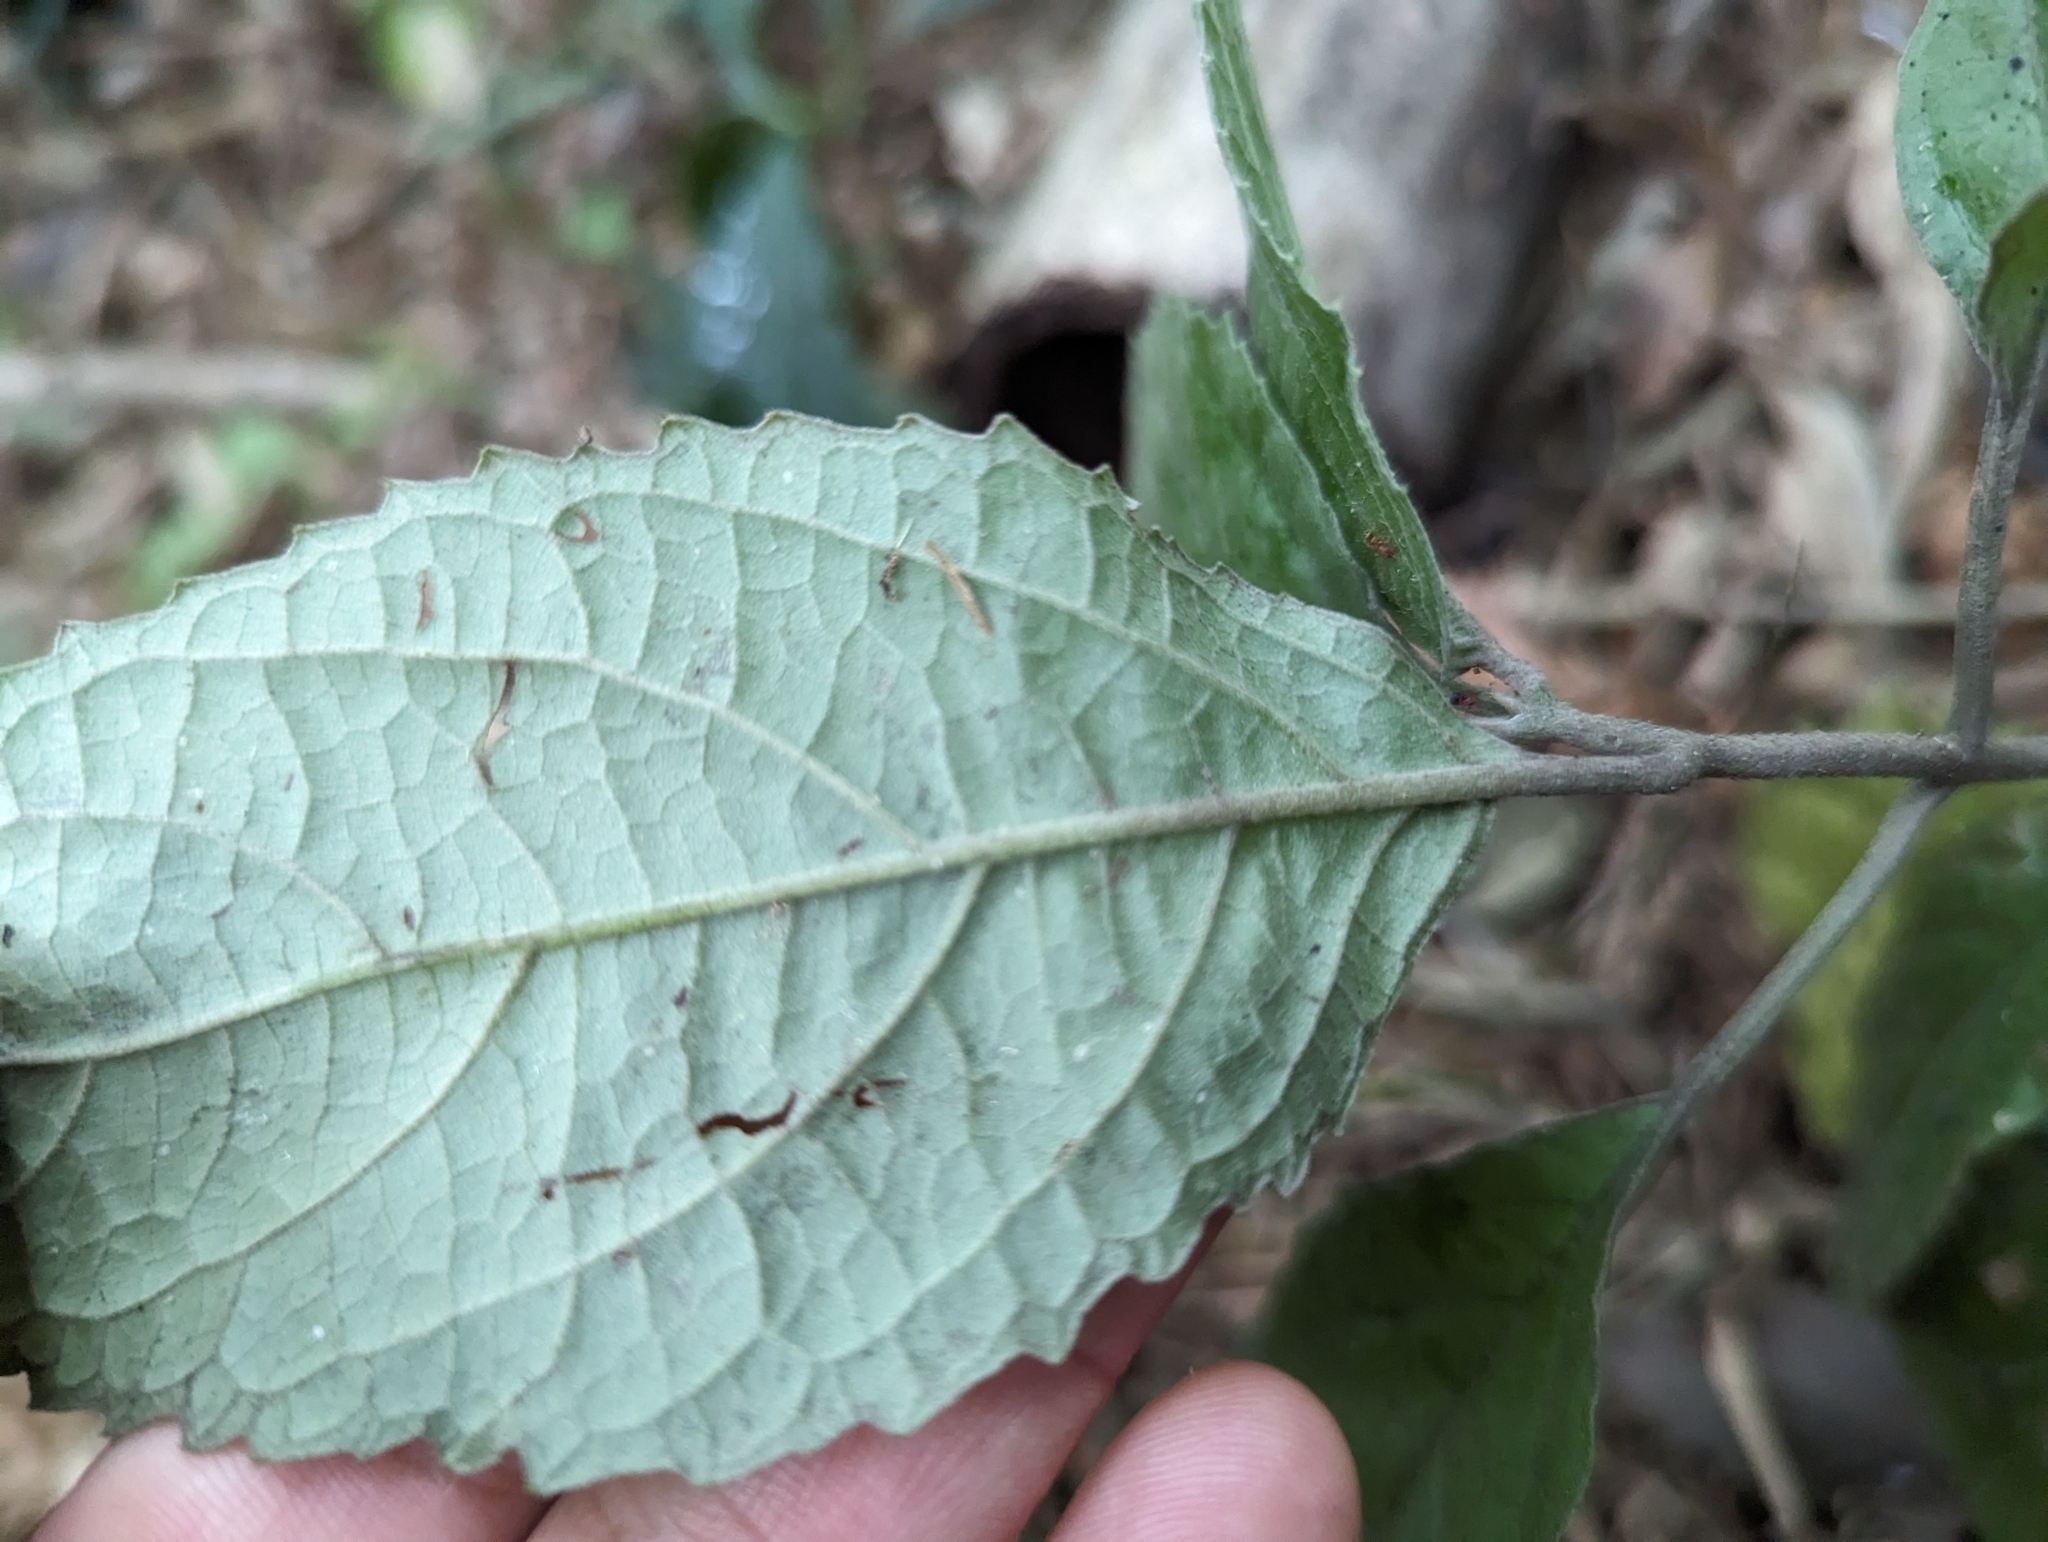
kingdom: Plantae
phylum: Tracheophyta
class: Magnoliopsida
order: Lamiales
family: Lamiaceae
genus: Gomphostemma
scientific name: Gomphostemma chinense
